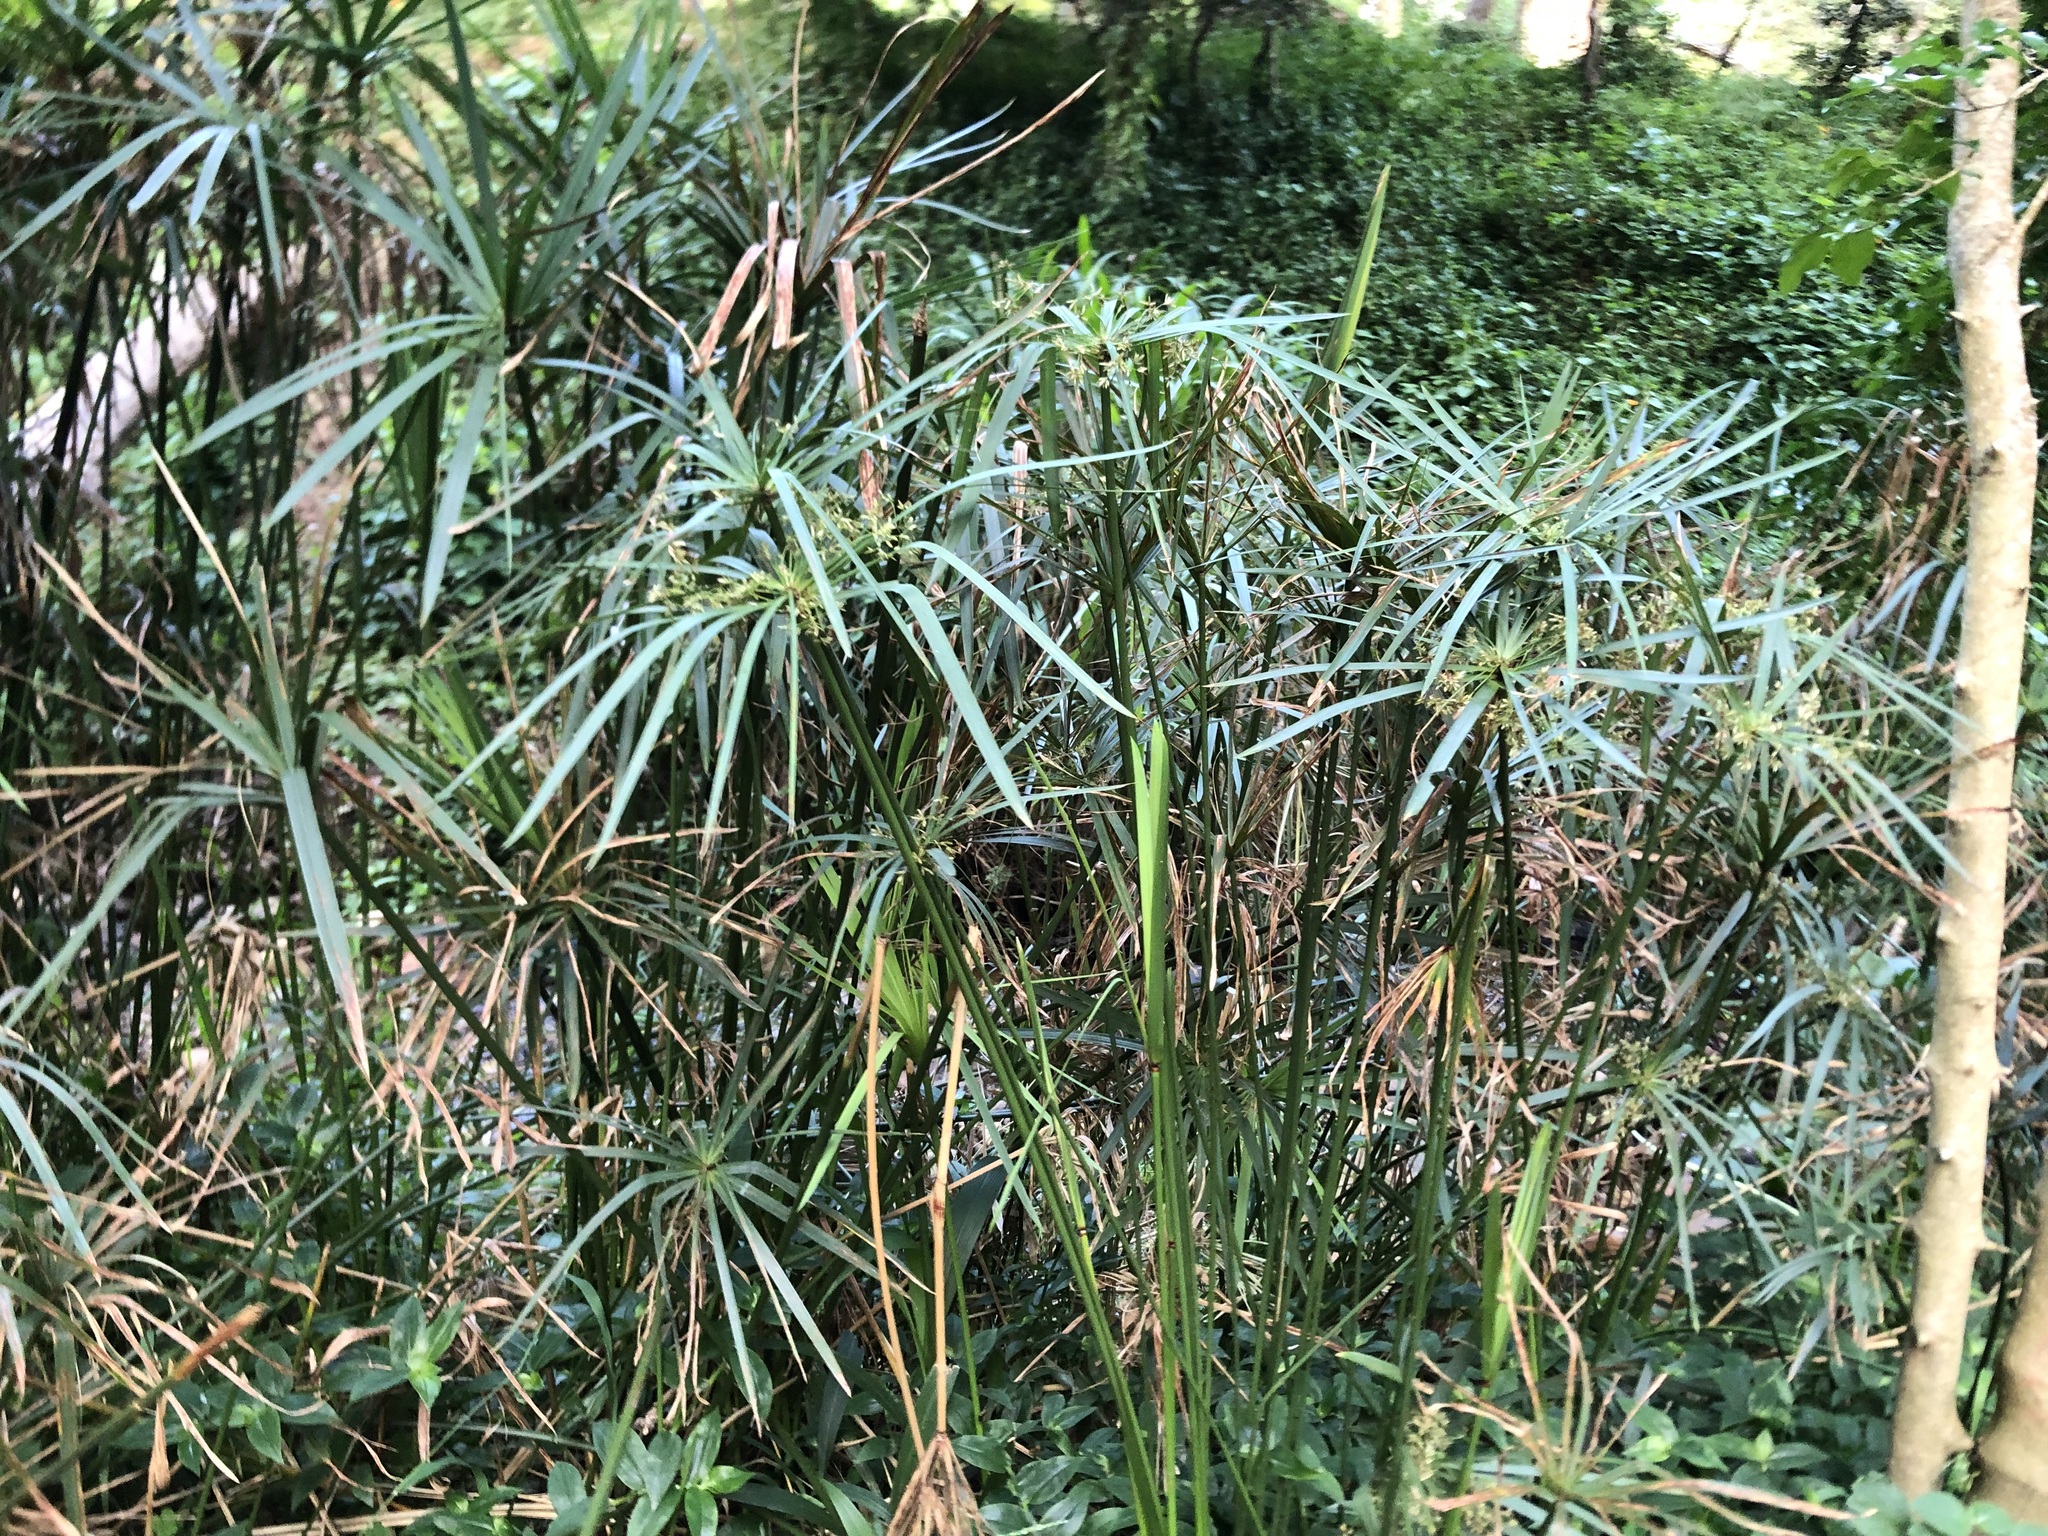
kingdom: Plantae
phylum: Tracheophyta
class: Liliopsida
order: Poales
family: Cyperaceae
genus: Cyperus
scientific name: Cyperus textilis
